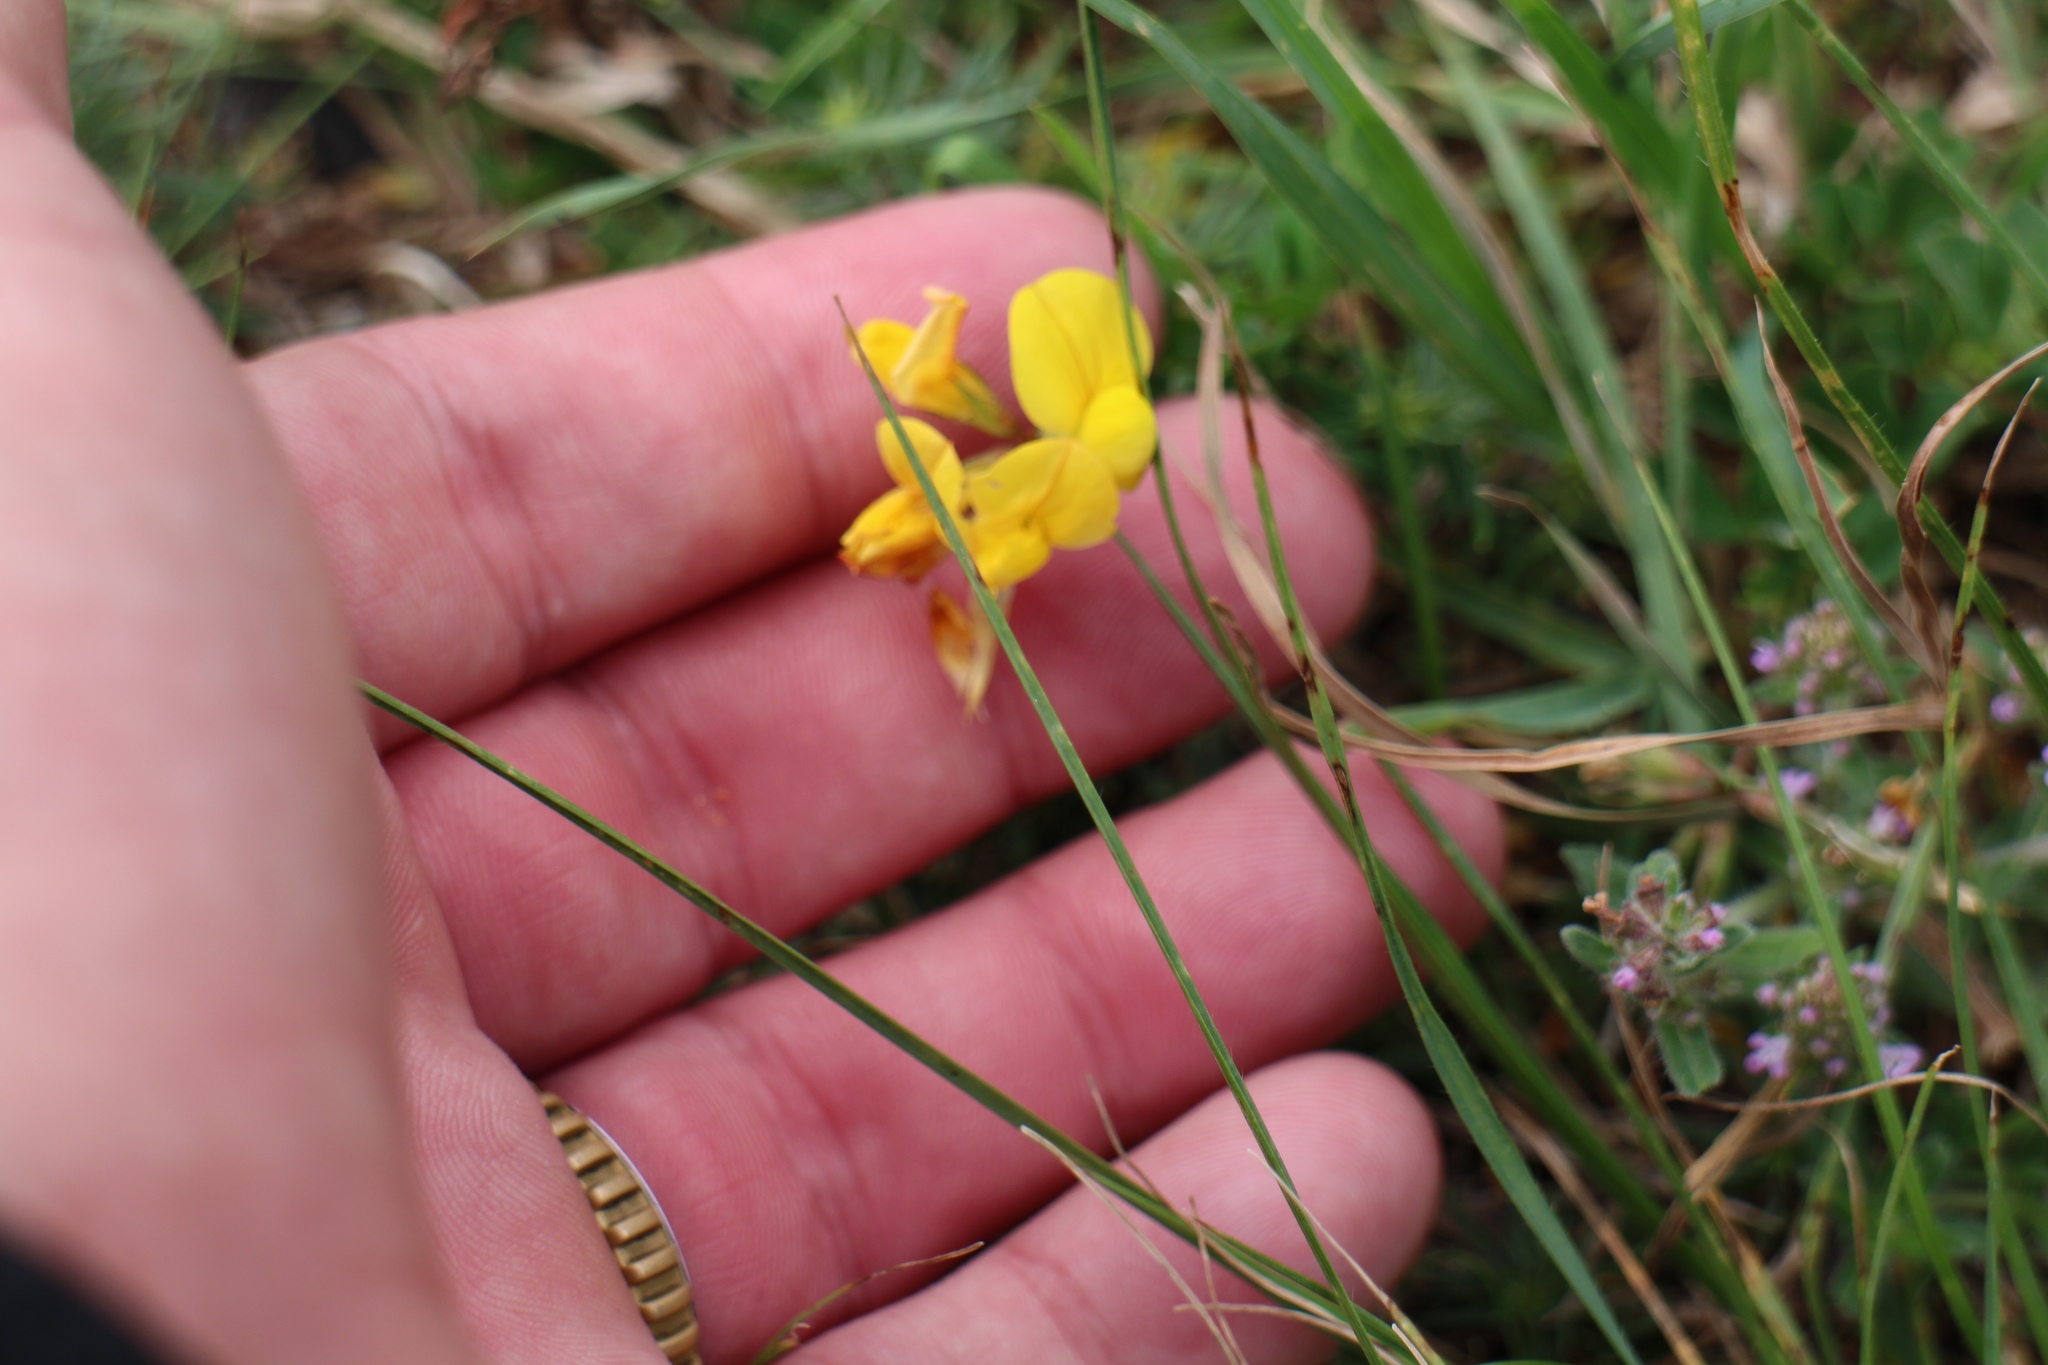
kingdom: Plantae
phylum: Tracheophyta
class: Magnoliopsida
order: Fabales
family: Fabaceae
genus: Lotus
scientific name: Lotus corniculatus
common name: Common bird's-foot-trefoil
